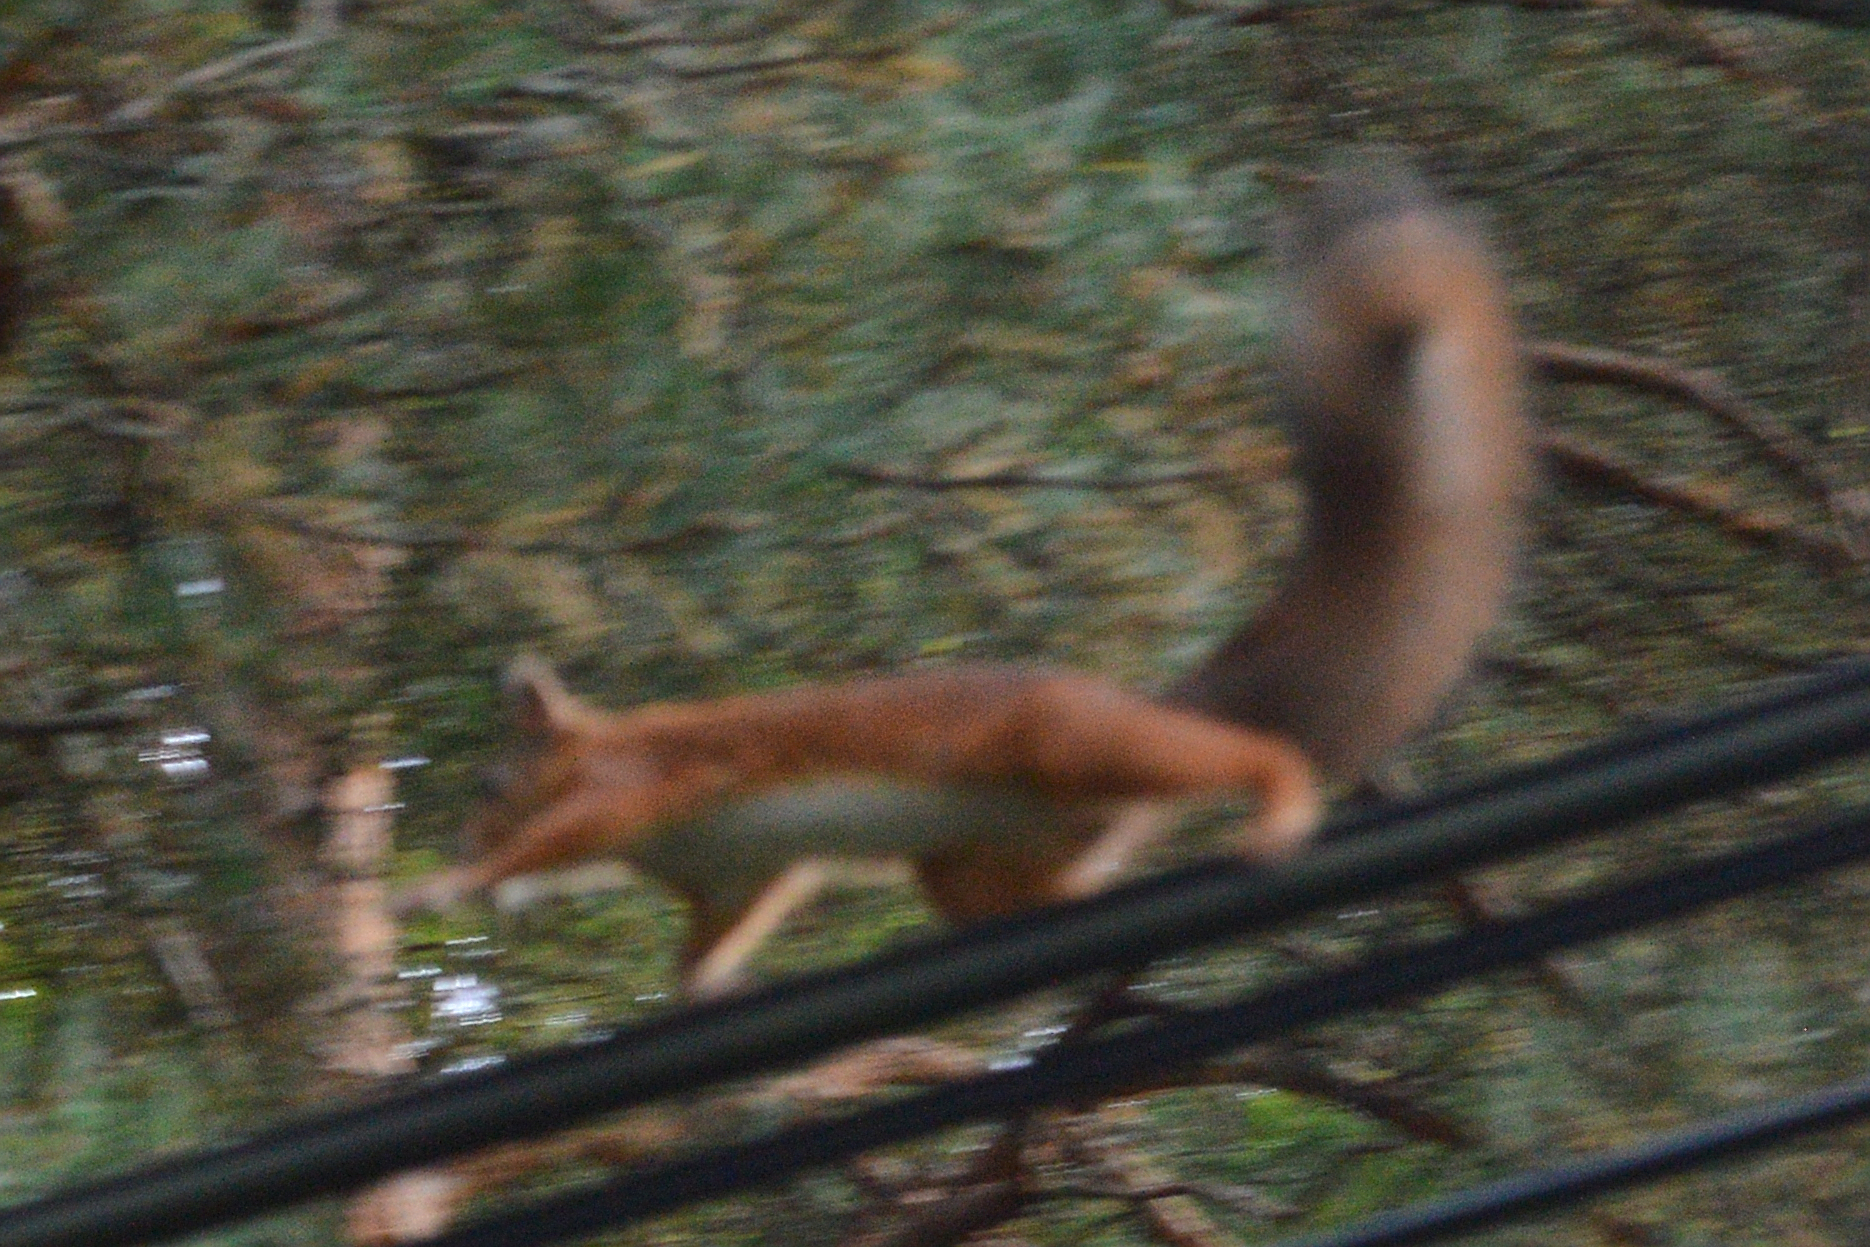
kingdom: Animalia
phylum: Chordata
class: Mammalia
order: Rodentia
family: Sciuridae
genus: Sciurus
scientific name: Sciurus vulgaris
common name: Eurasian red squirrel
